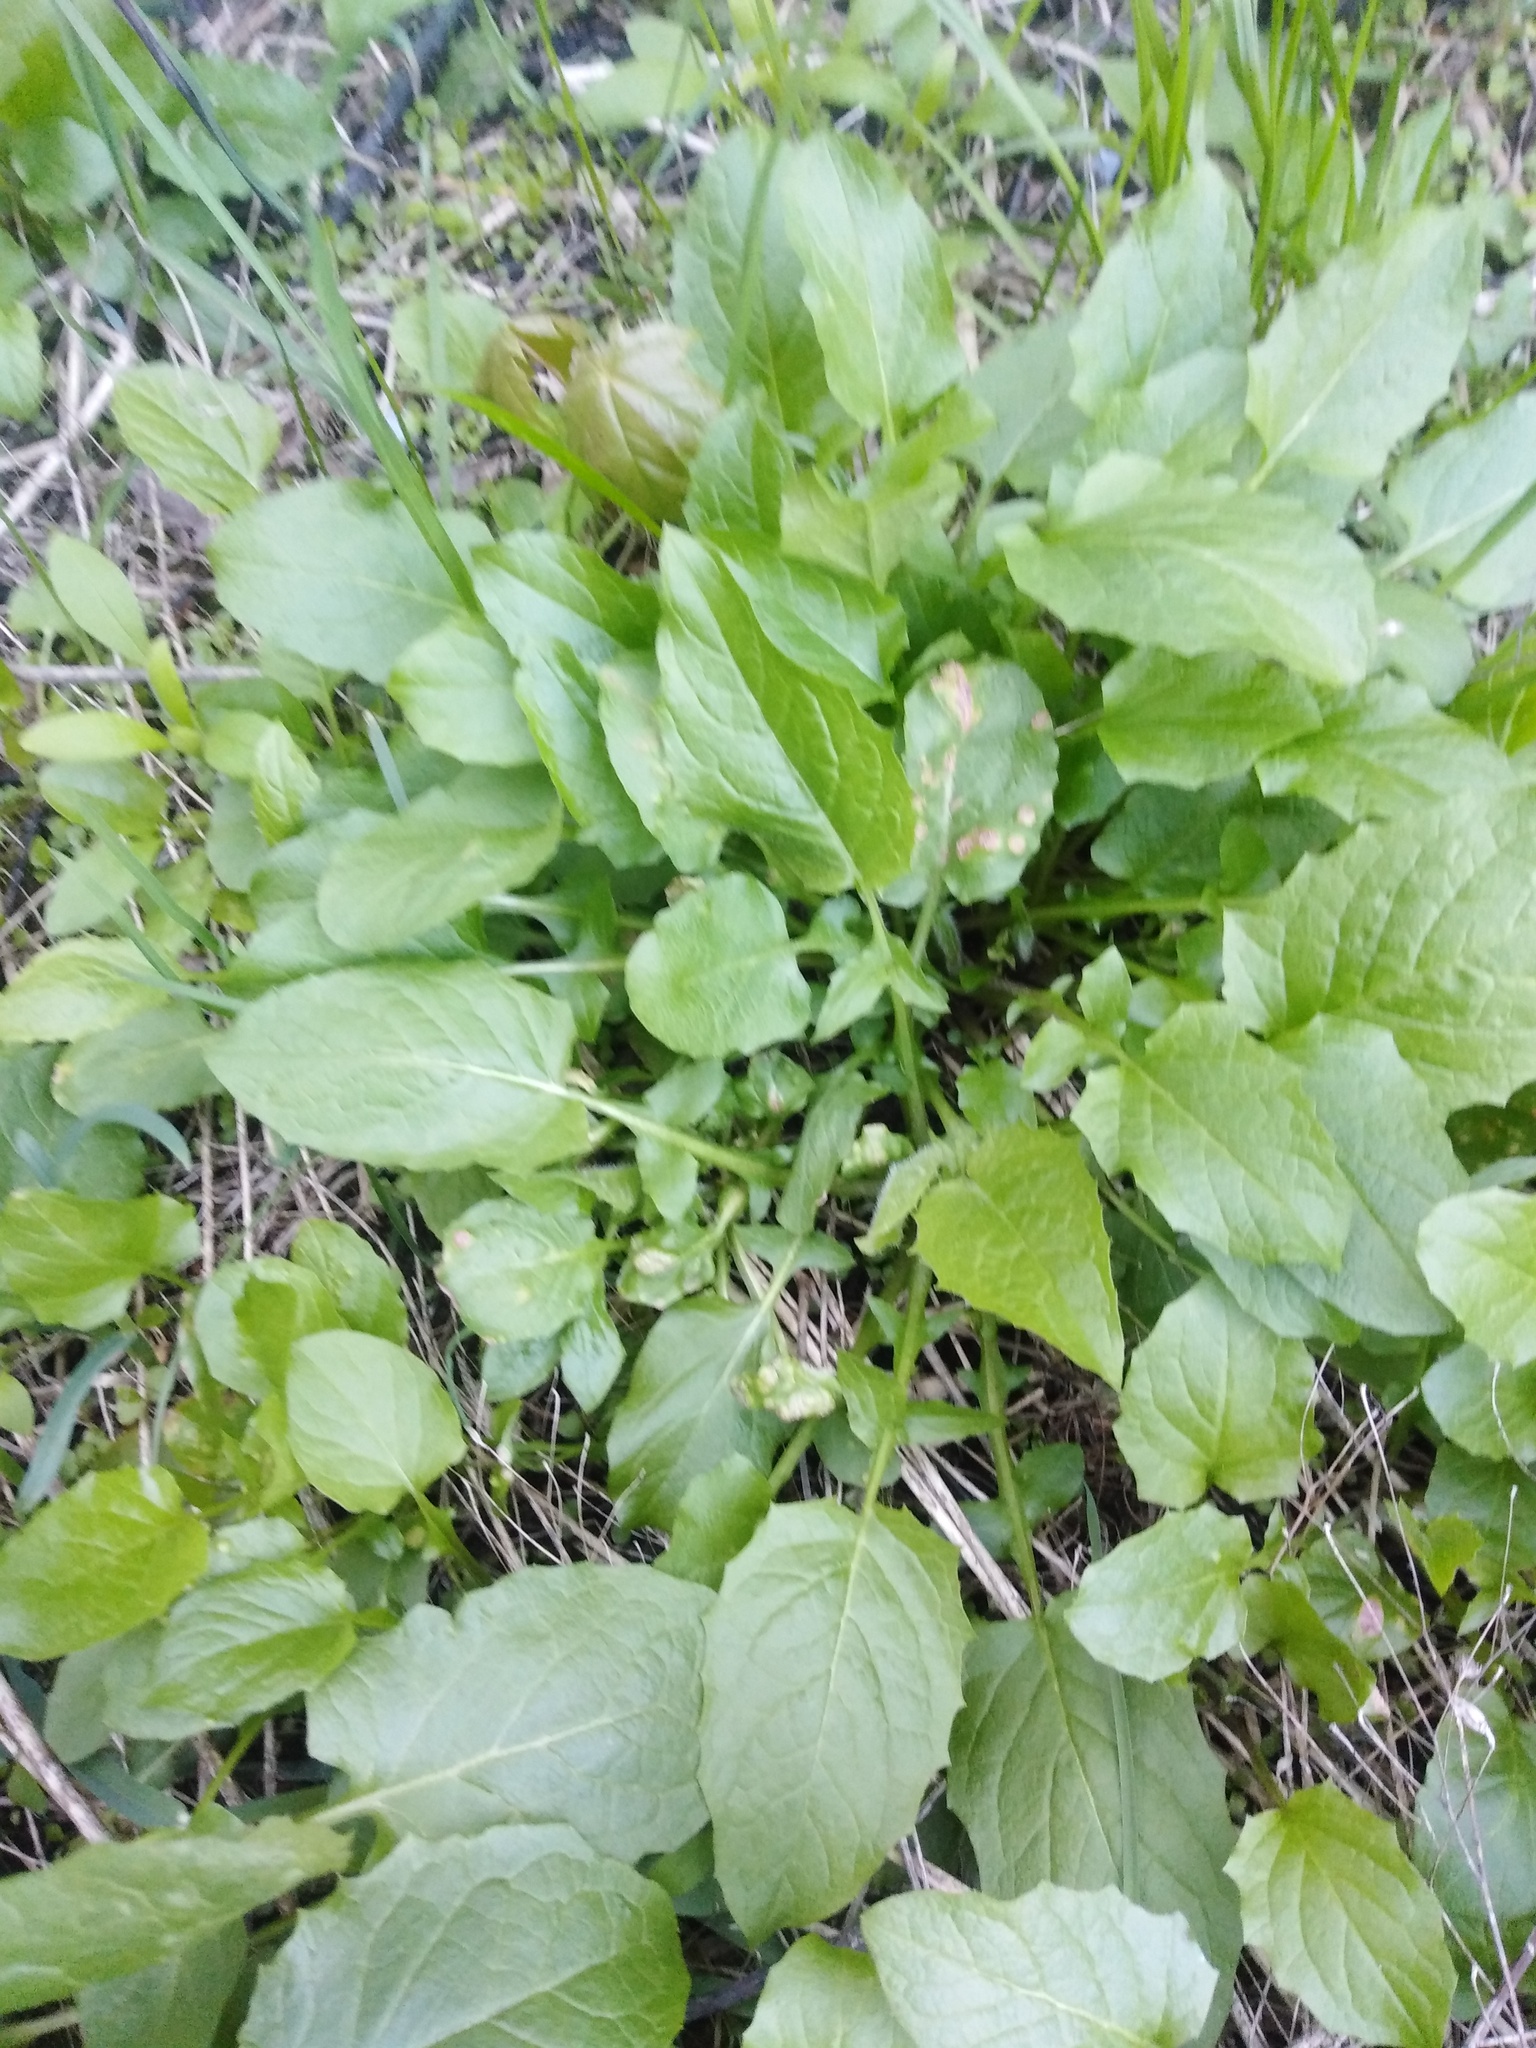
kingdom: Plantae
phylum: Tracheophyta
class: Magnoliopsida
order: Asterales
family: Asteraceae
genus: Lapsana
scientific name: Lapsana communis
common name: Nipplewort
